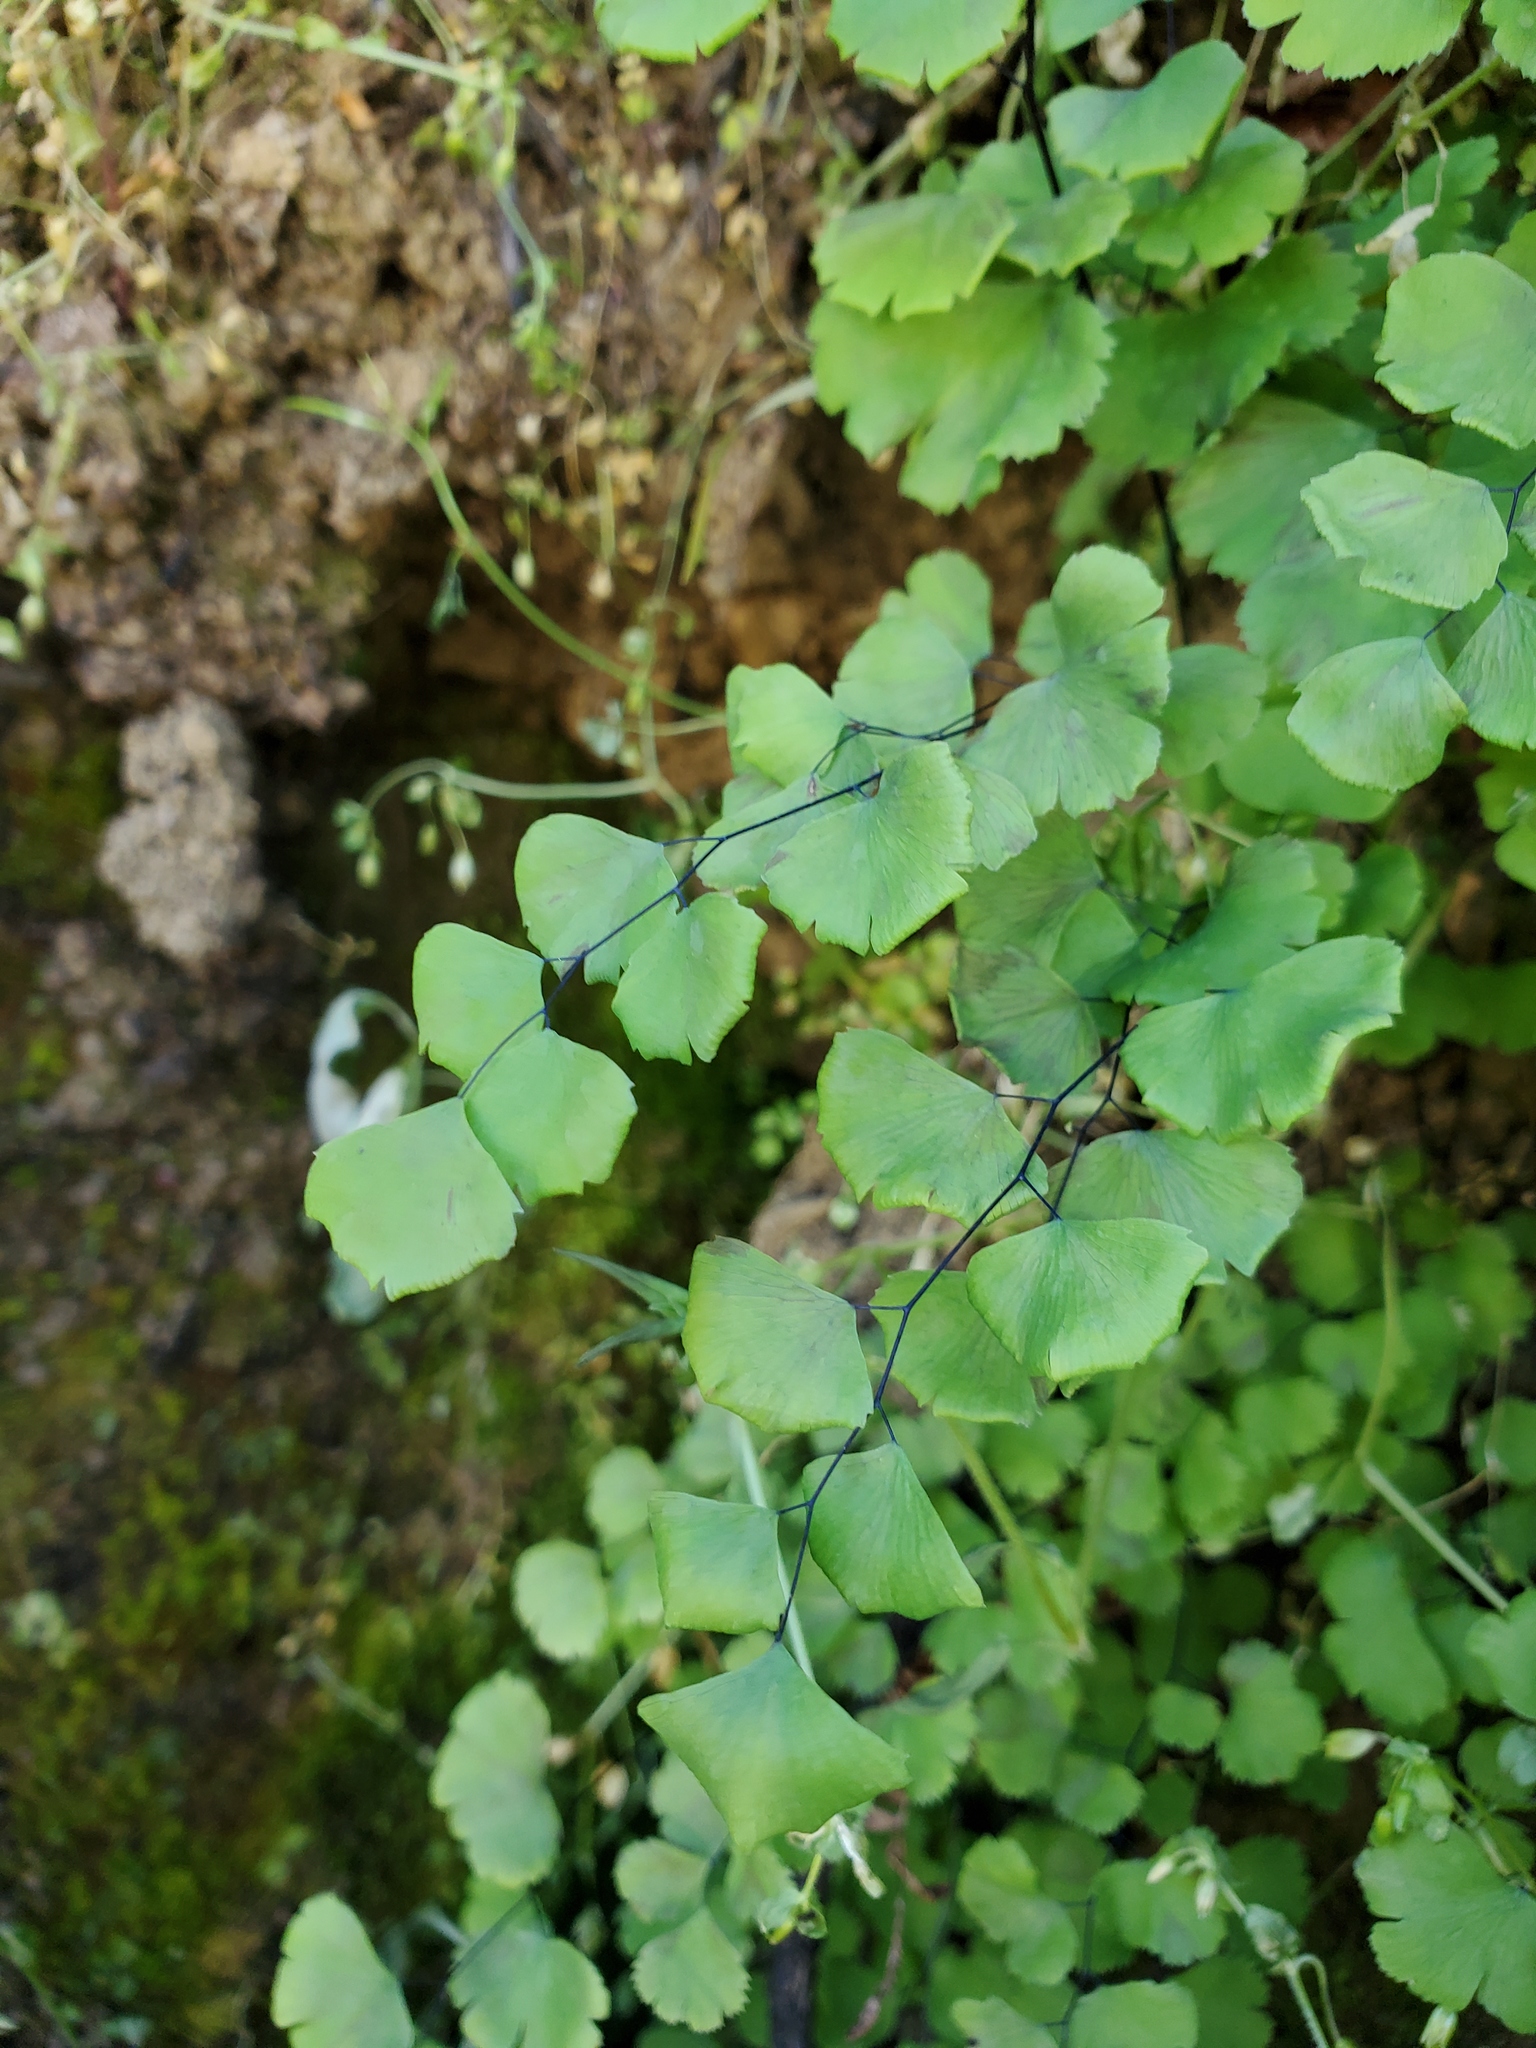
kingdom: Plantae
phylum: Tracheophyta
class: Polypodiopsida
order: Polypodiales
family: Pteridaceae
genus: Adiantum
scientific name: Adiantum jordanii
